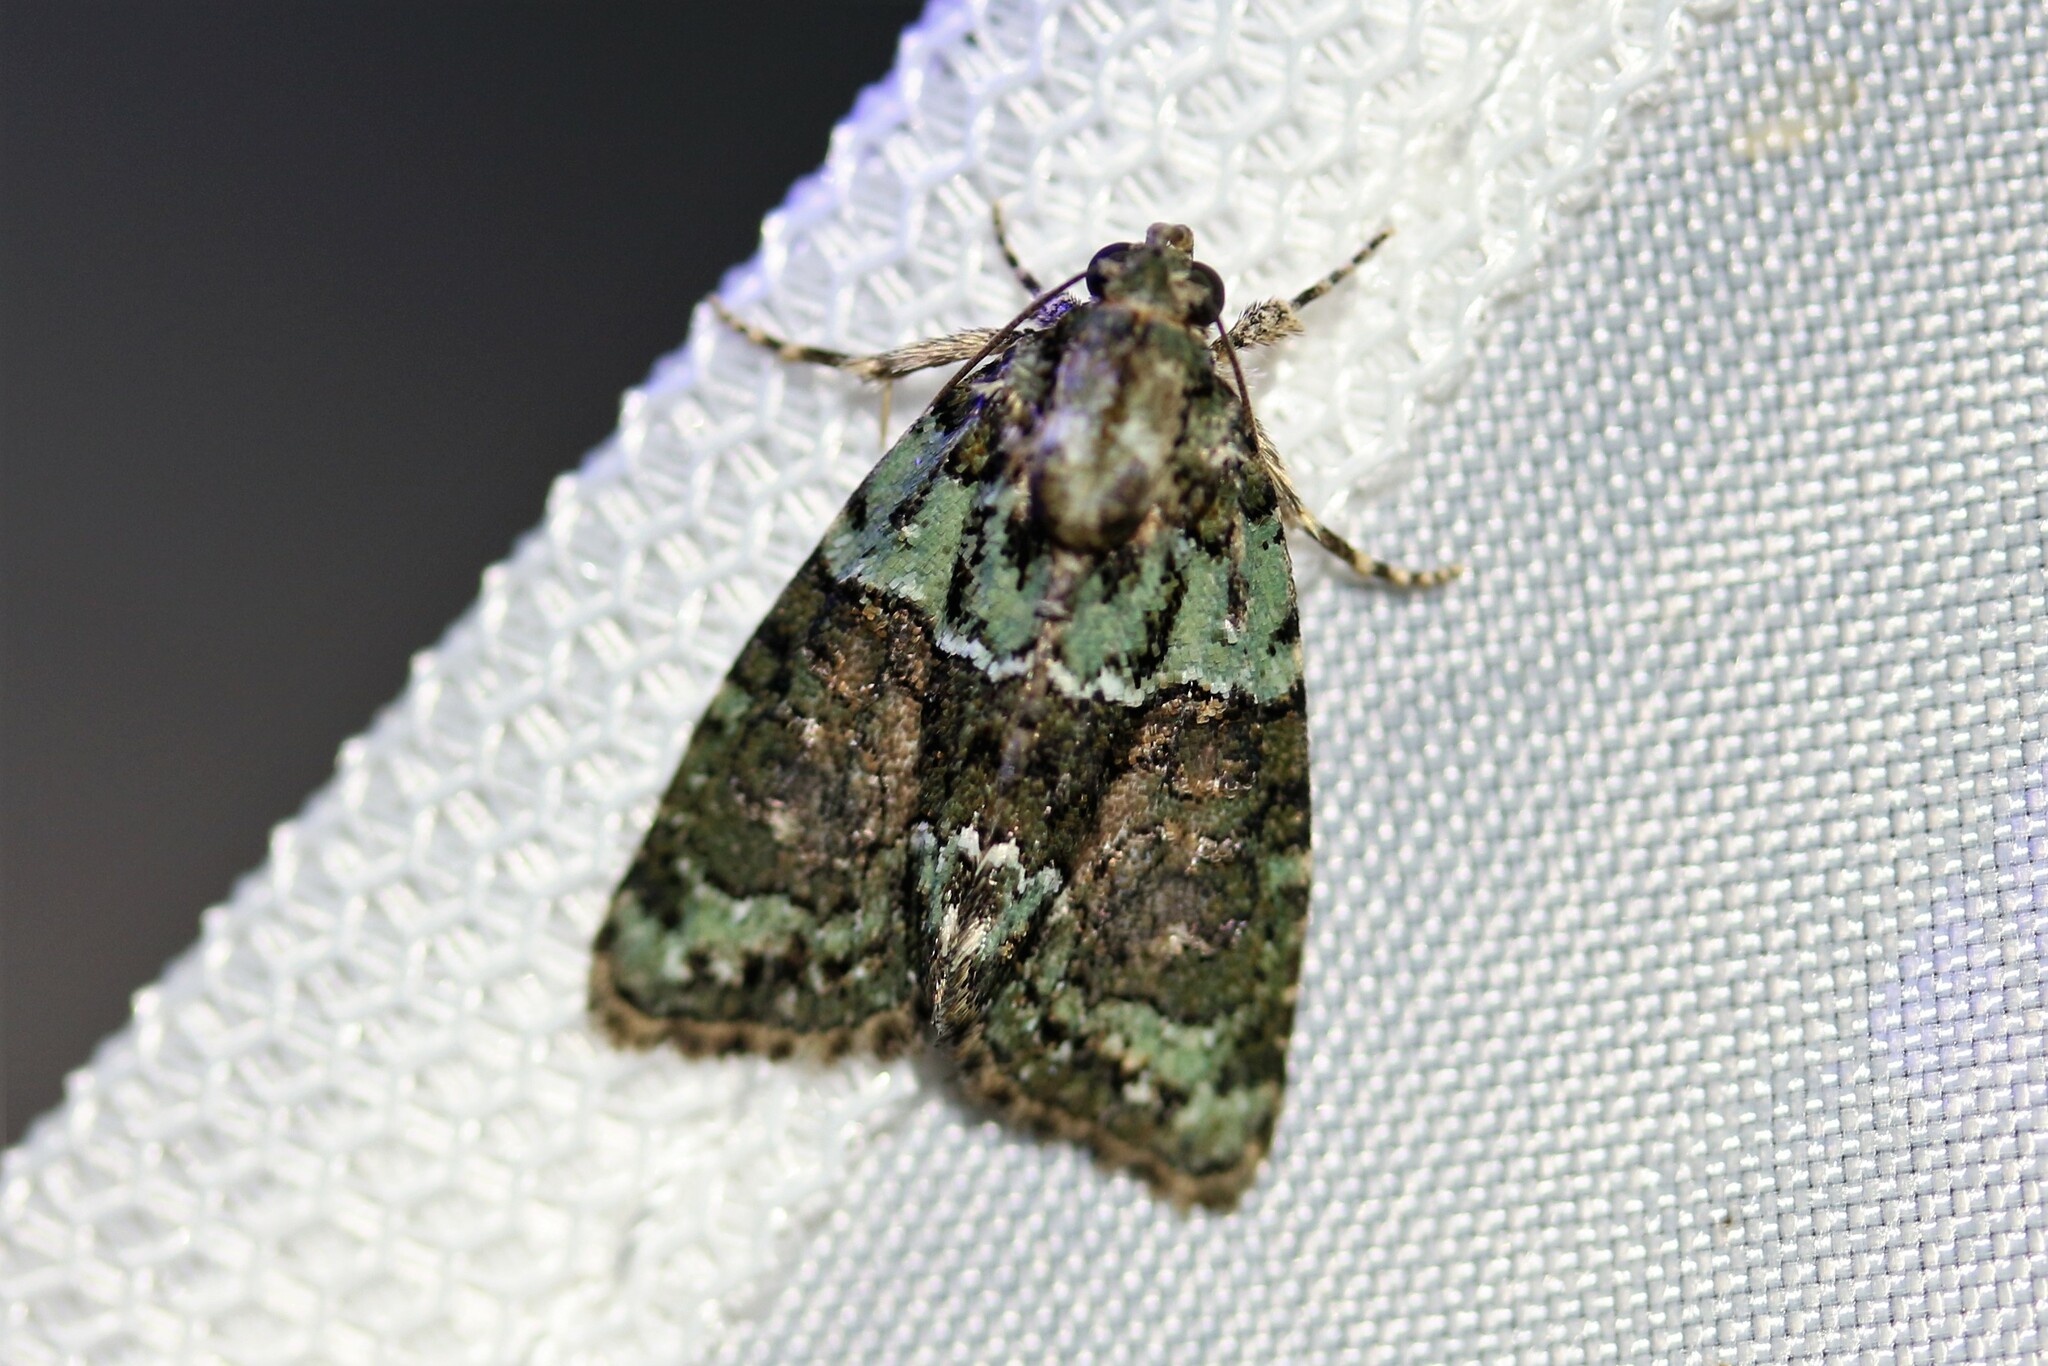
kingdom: Animalia
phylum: Arthropoda
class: Insecta
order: Lepidoptera
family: Noctuidae
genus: Cryphia
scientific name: Cryphia algae
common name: Tree-lichen beauty
